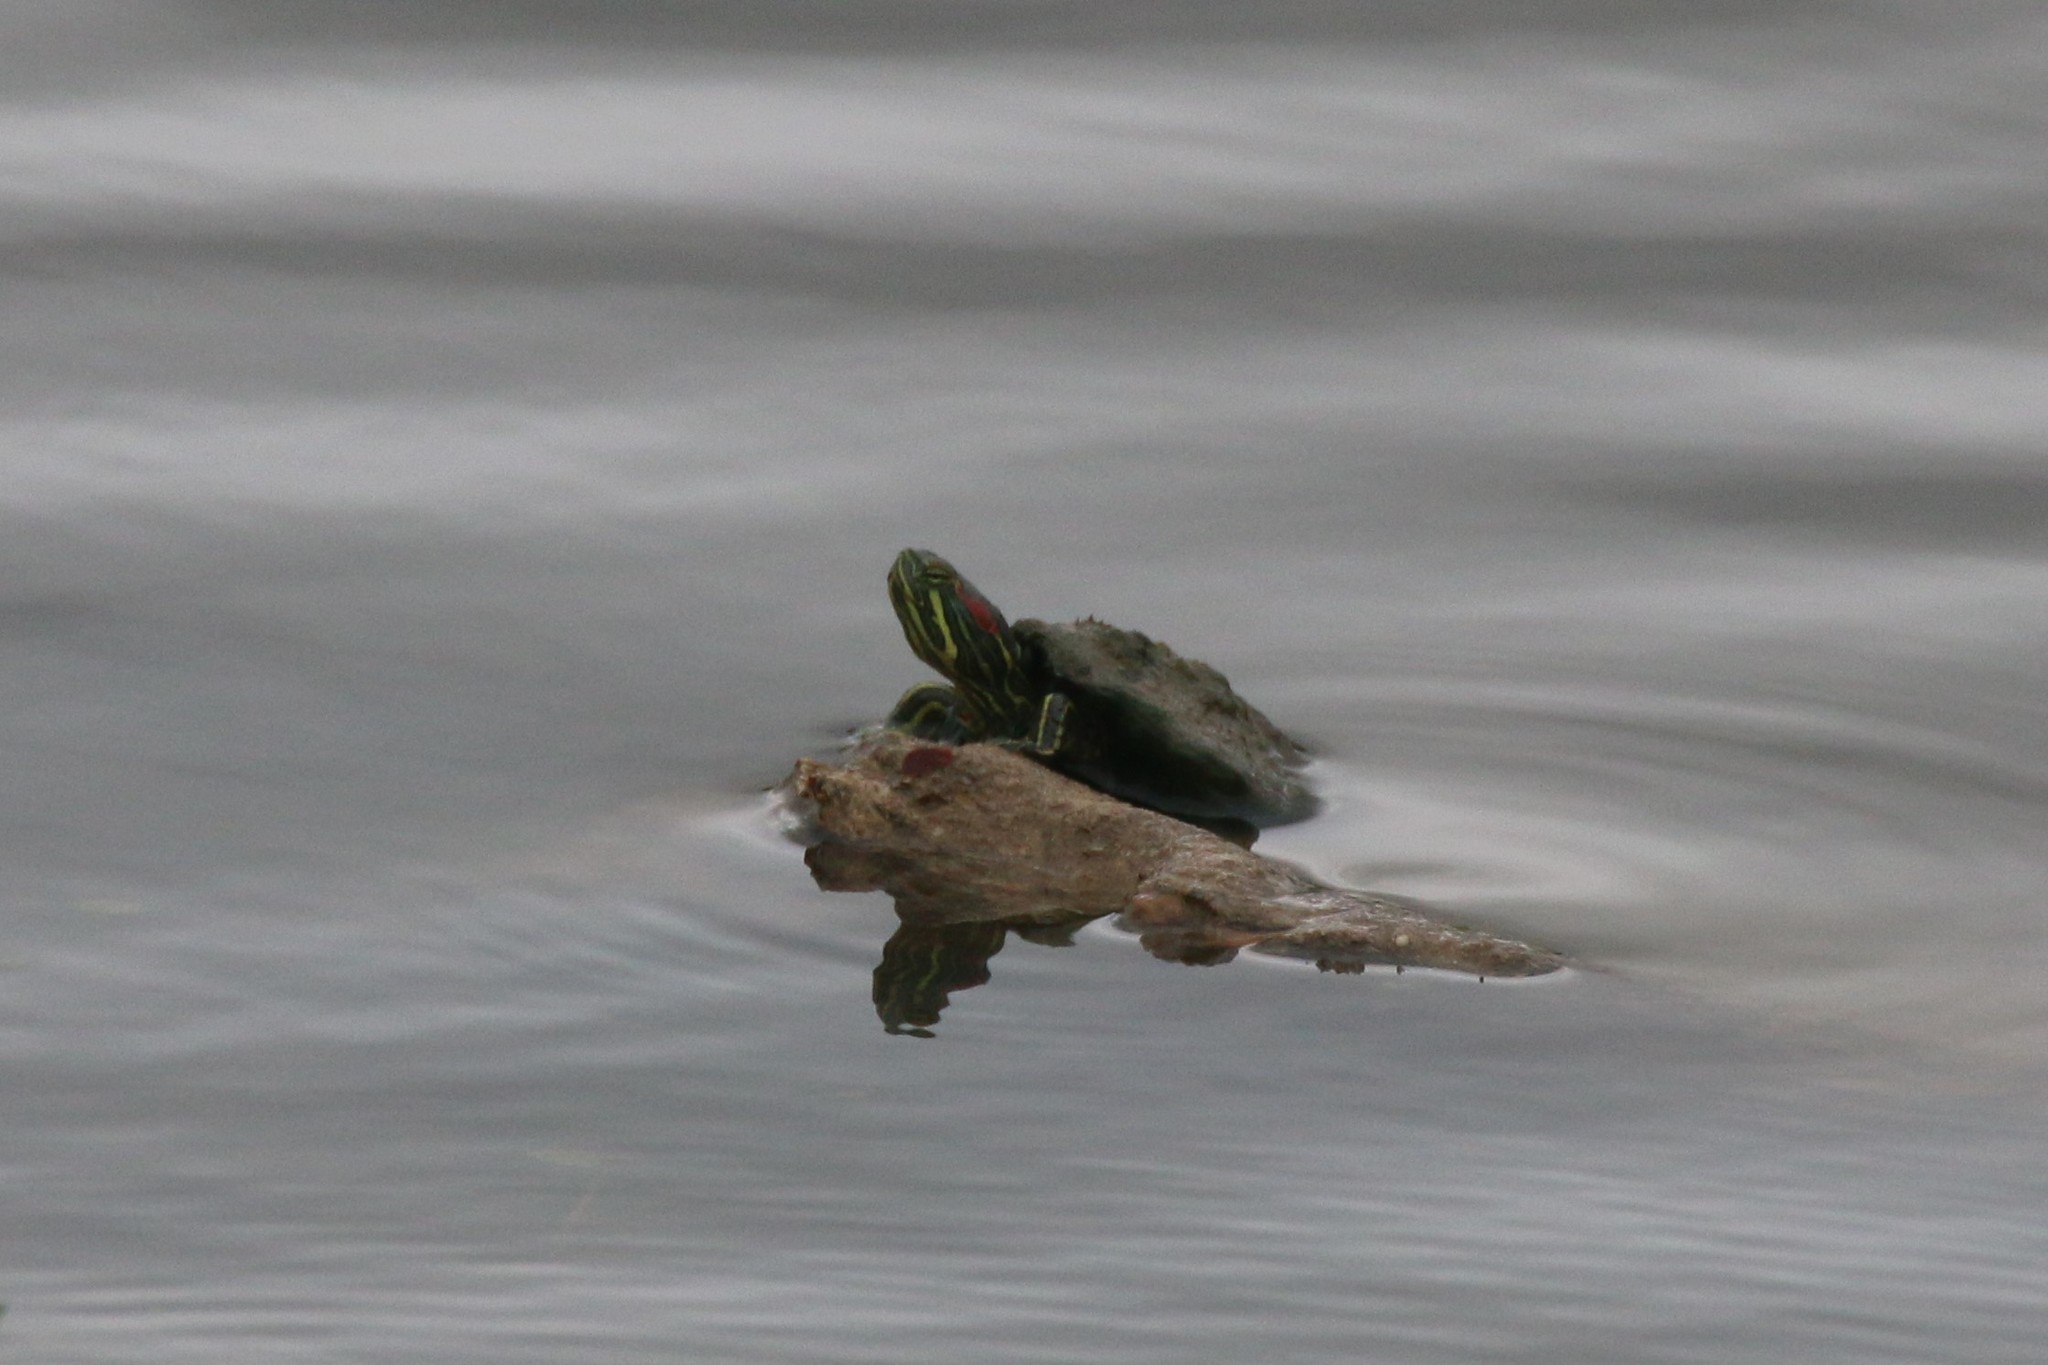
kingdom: Animalia
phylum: Chordata
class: Testudines
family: Emydidae
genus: Trachemys
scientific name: Trachemys scripta
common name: Slider
